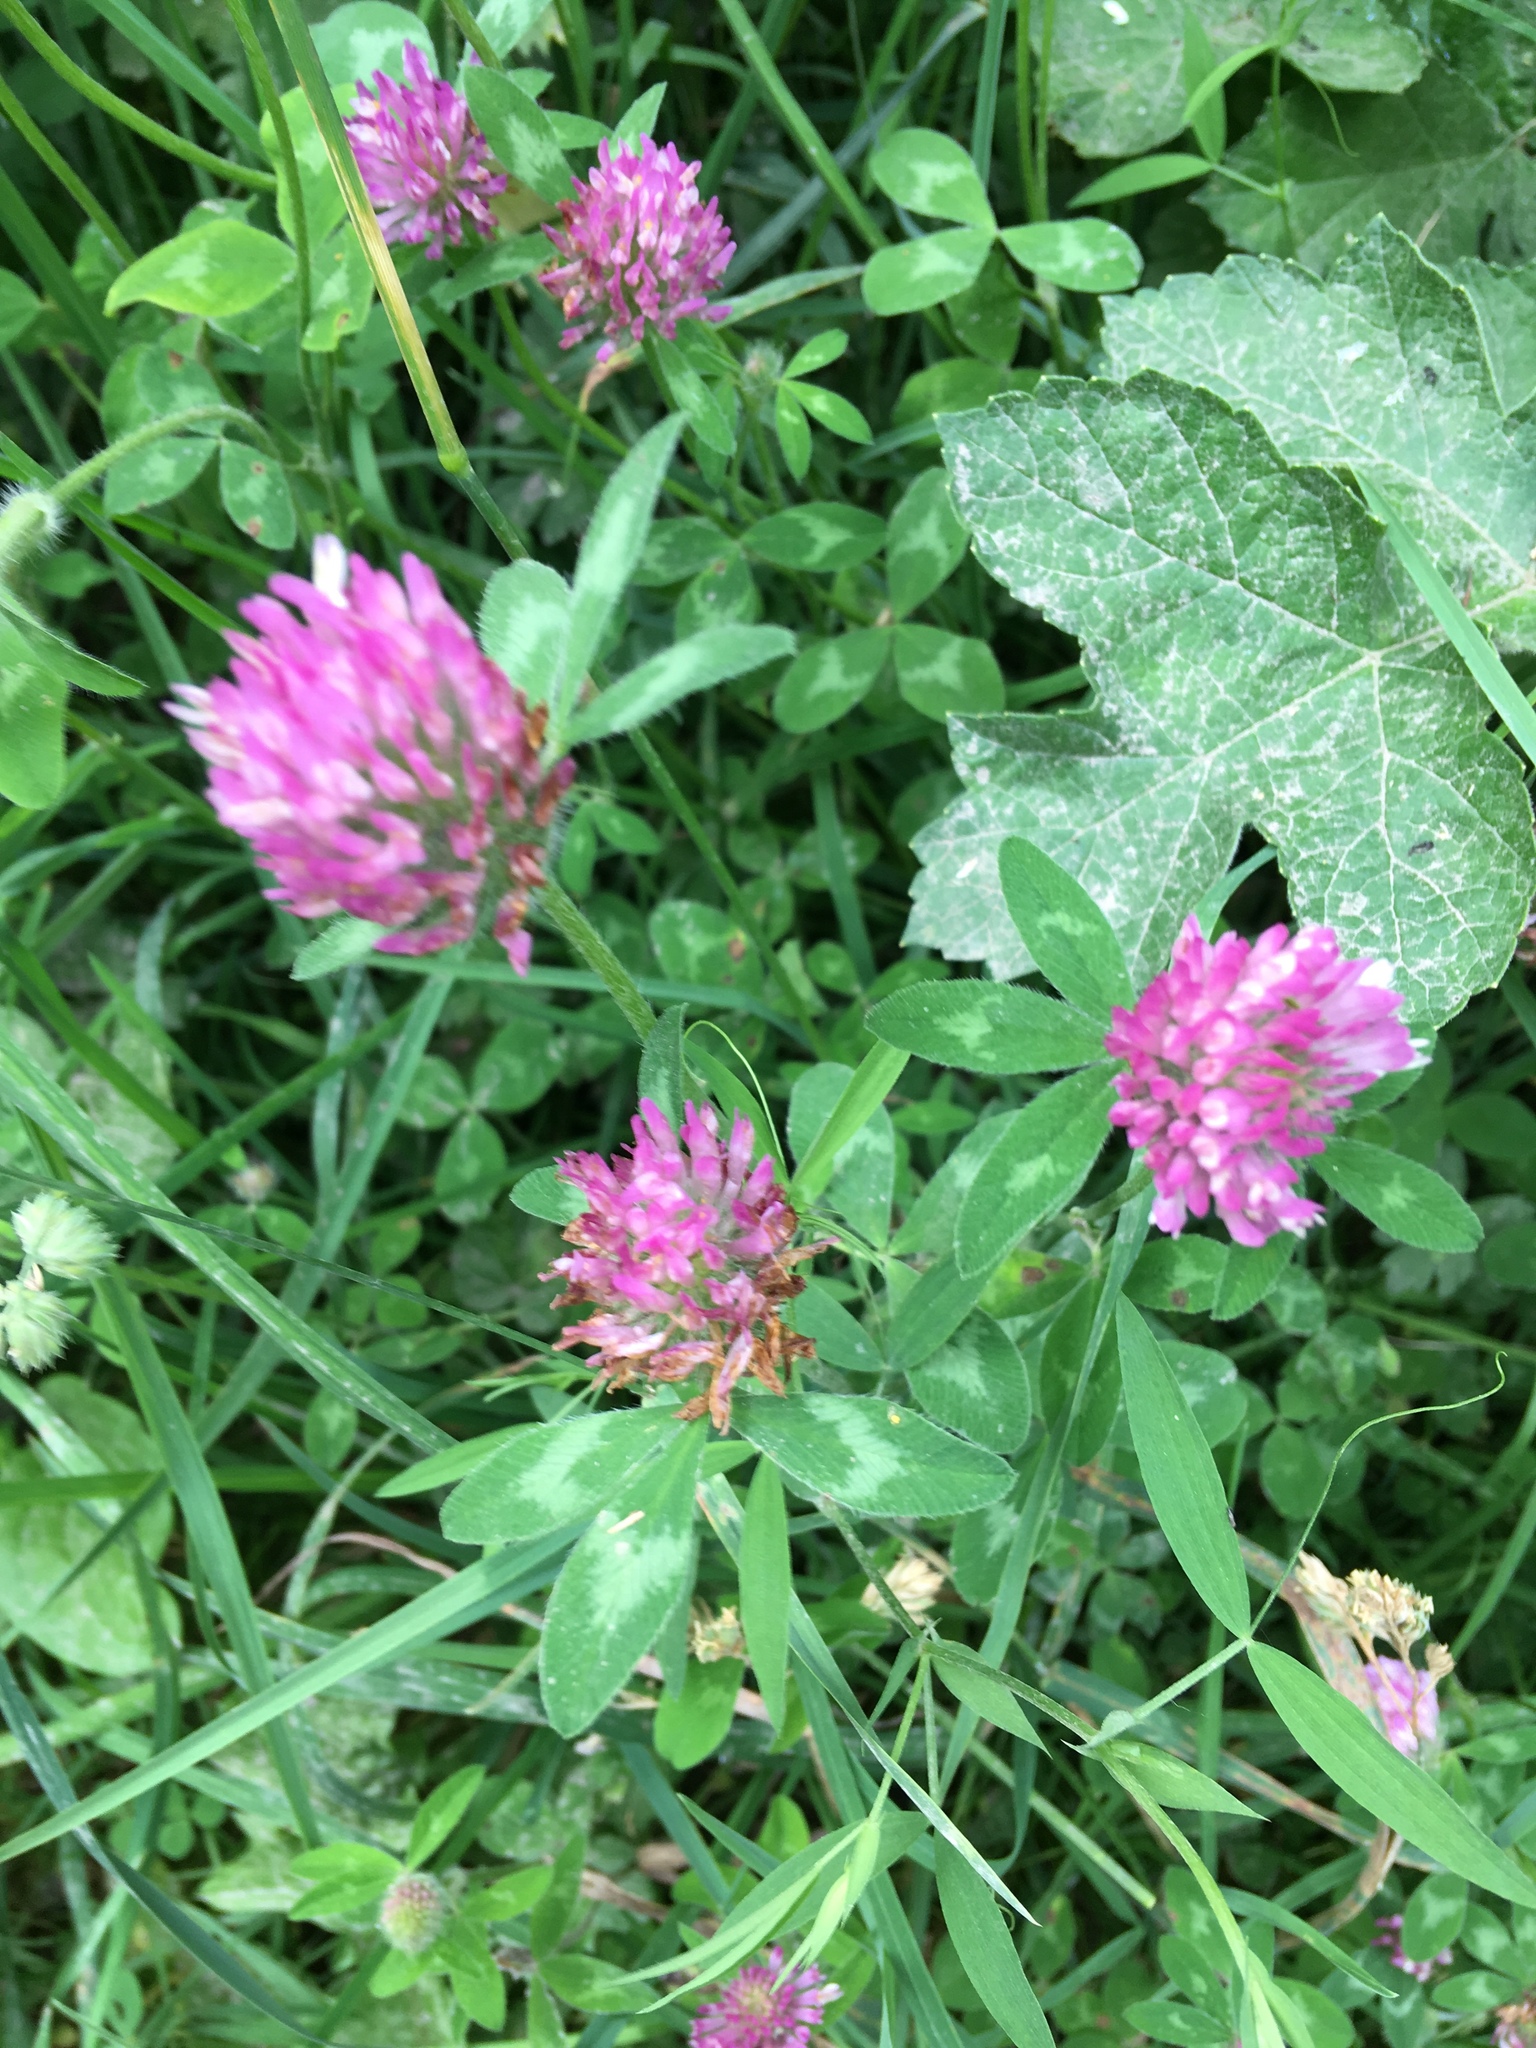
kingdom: Plantae
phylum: Tracheophyta
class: Magnoliopsida
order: Fabales
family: Fabaceae
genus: Trifolium
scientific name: Trifolium pratense
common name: Red clover
